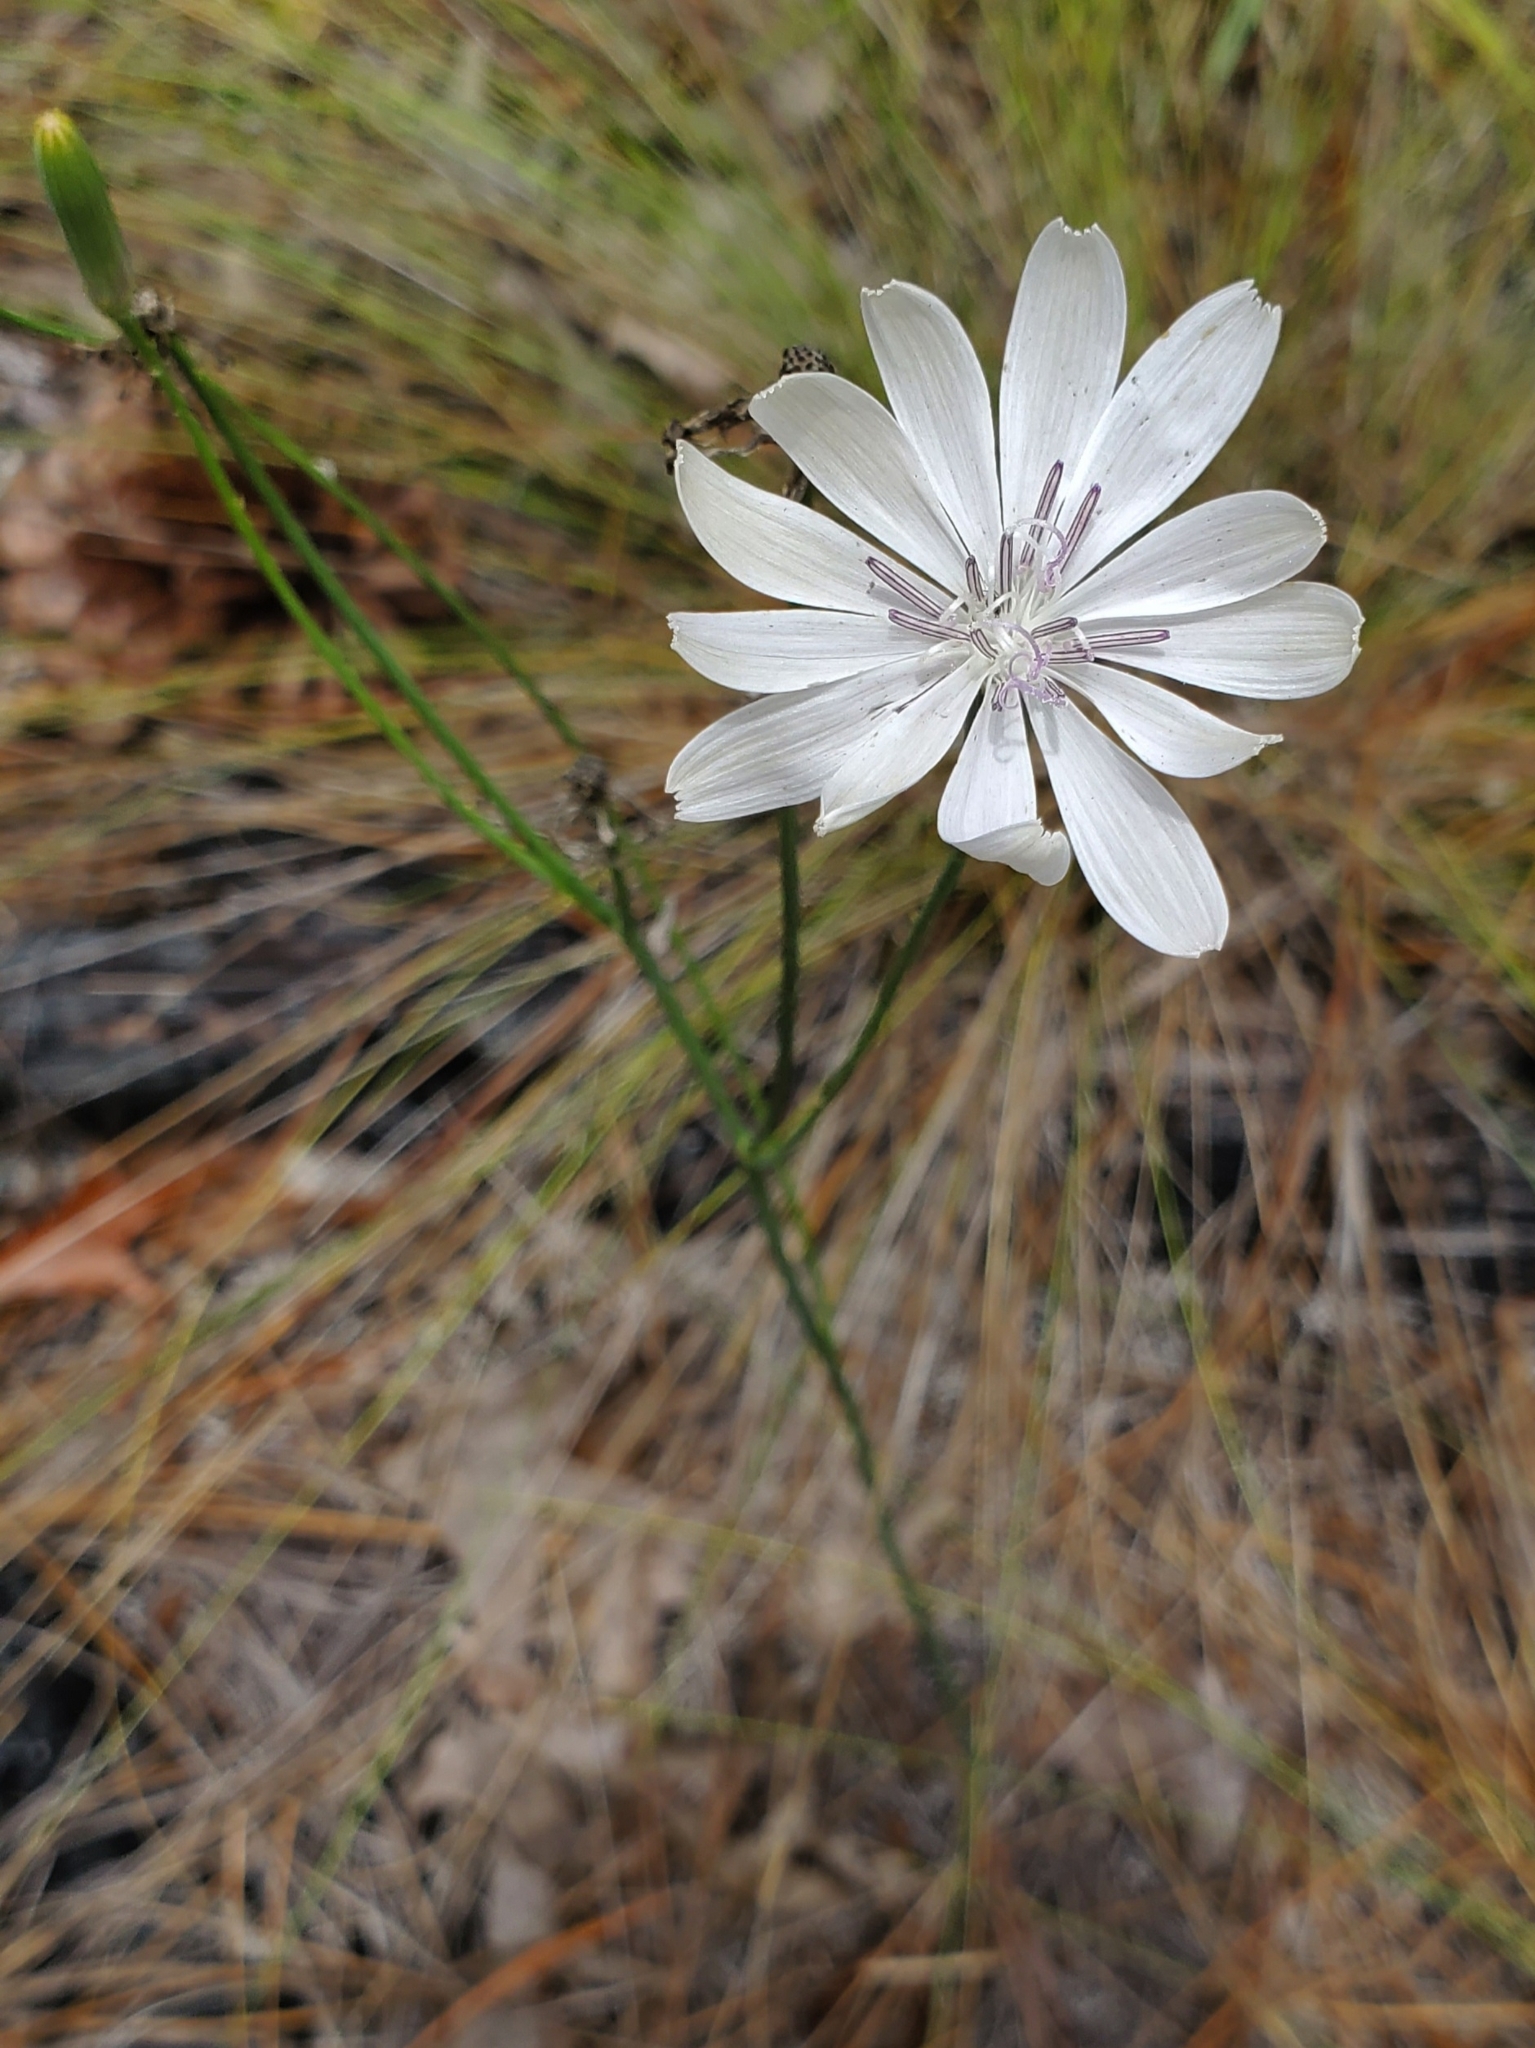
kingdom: Plantae
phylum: Tracheophyta
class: Magnoliopsida
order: Asterales
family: Asteraceae
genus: Lygodesmia
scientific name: Lygodesmia aphylla
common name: Rose-rush
